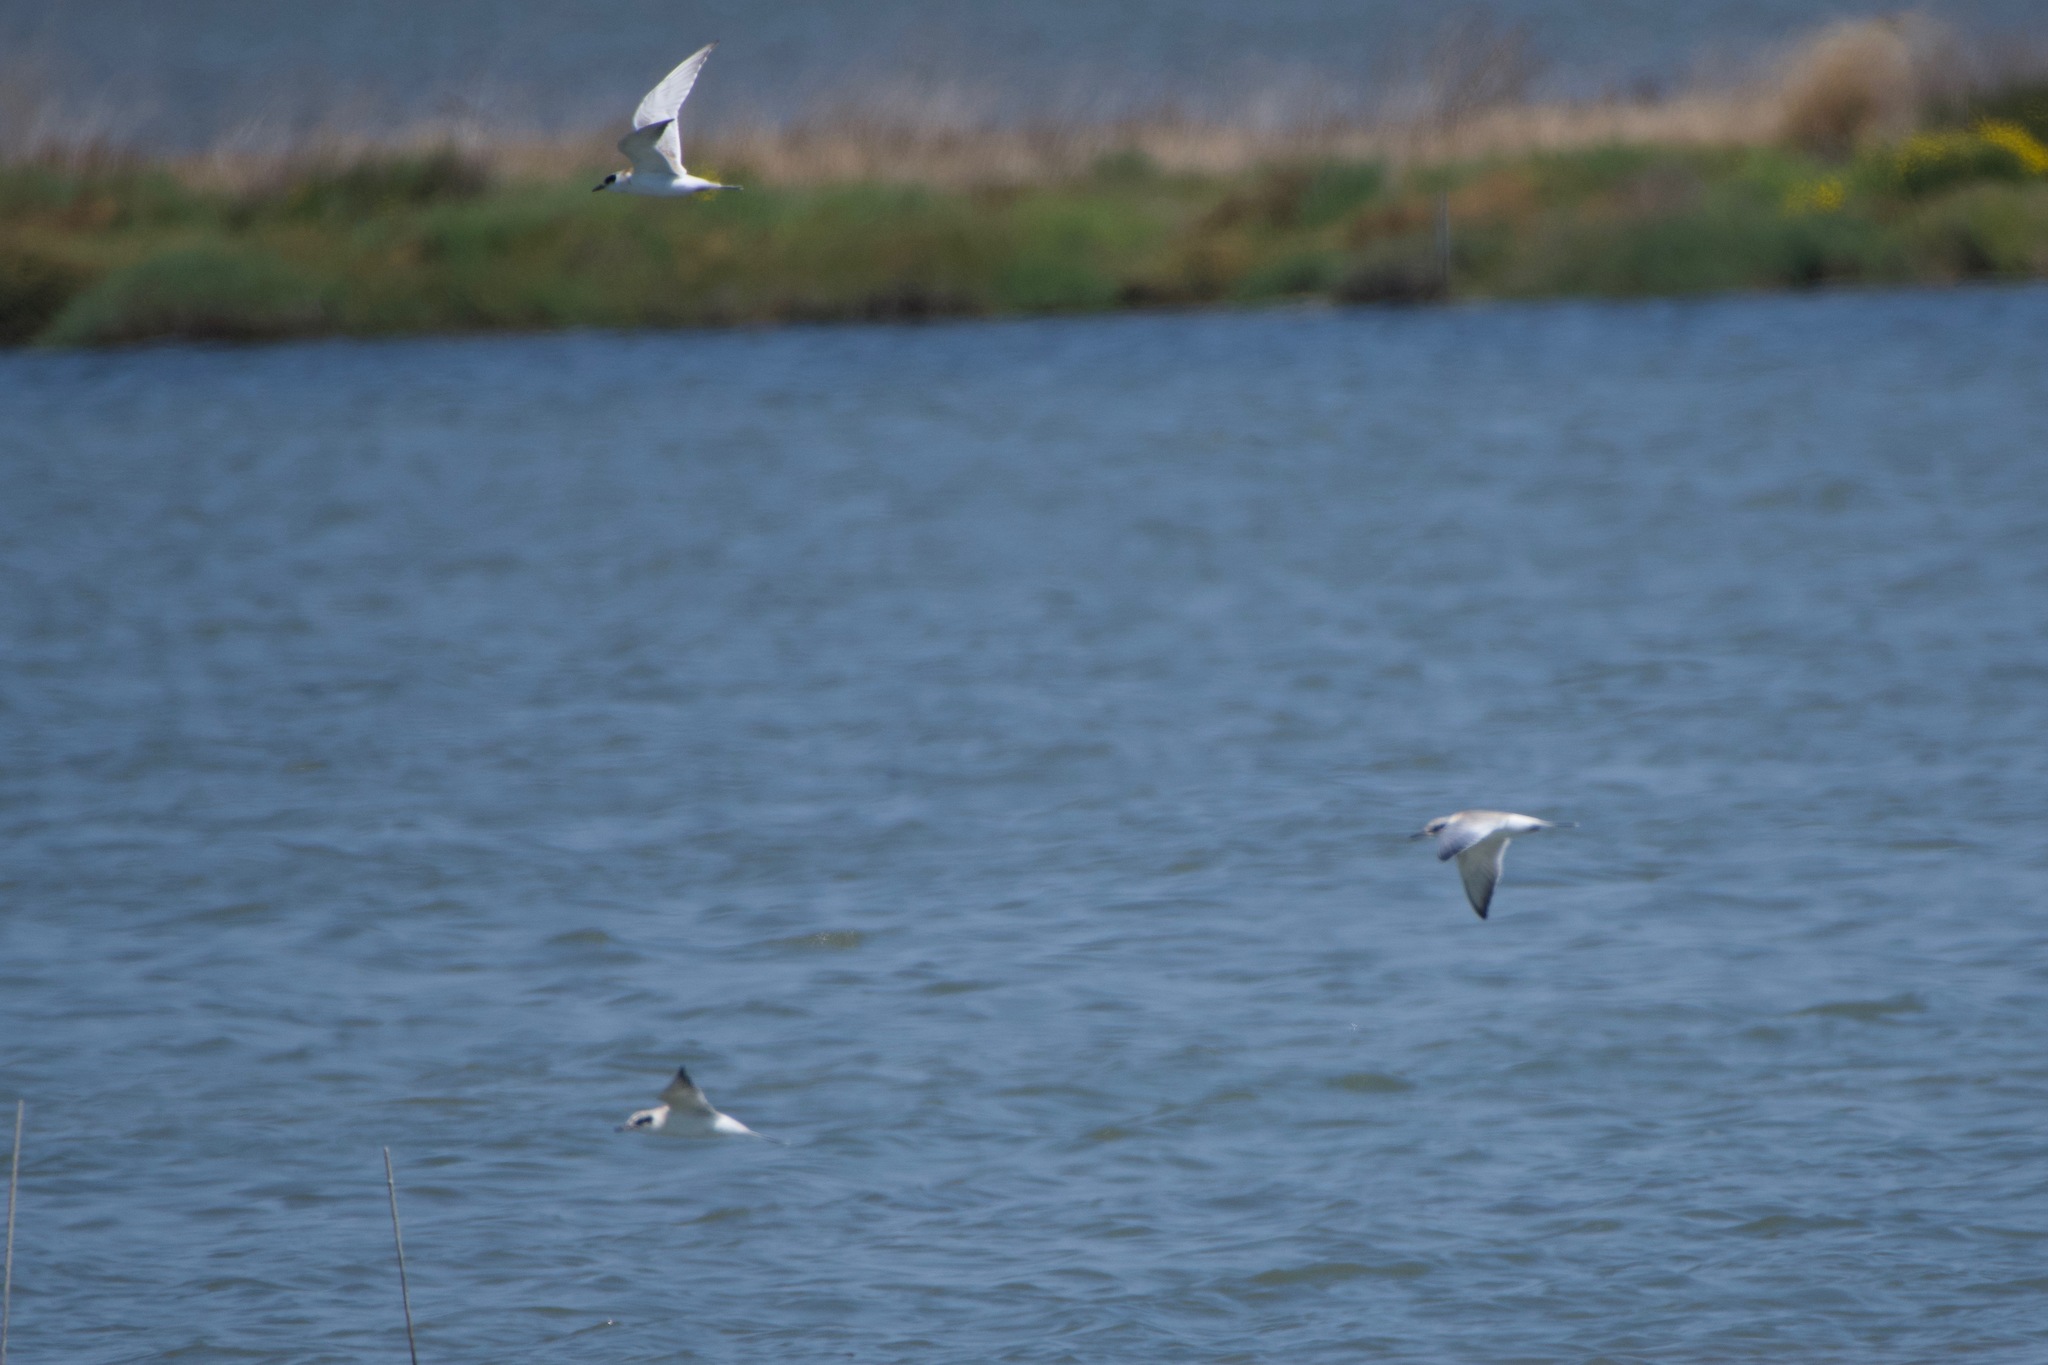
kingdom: Animalia
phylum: Chordata
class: Aves
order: Charadriiformes
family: Laridae
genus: Sterna
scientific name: Sterna forsteri
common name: Forster's tern
